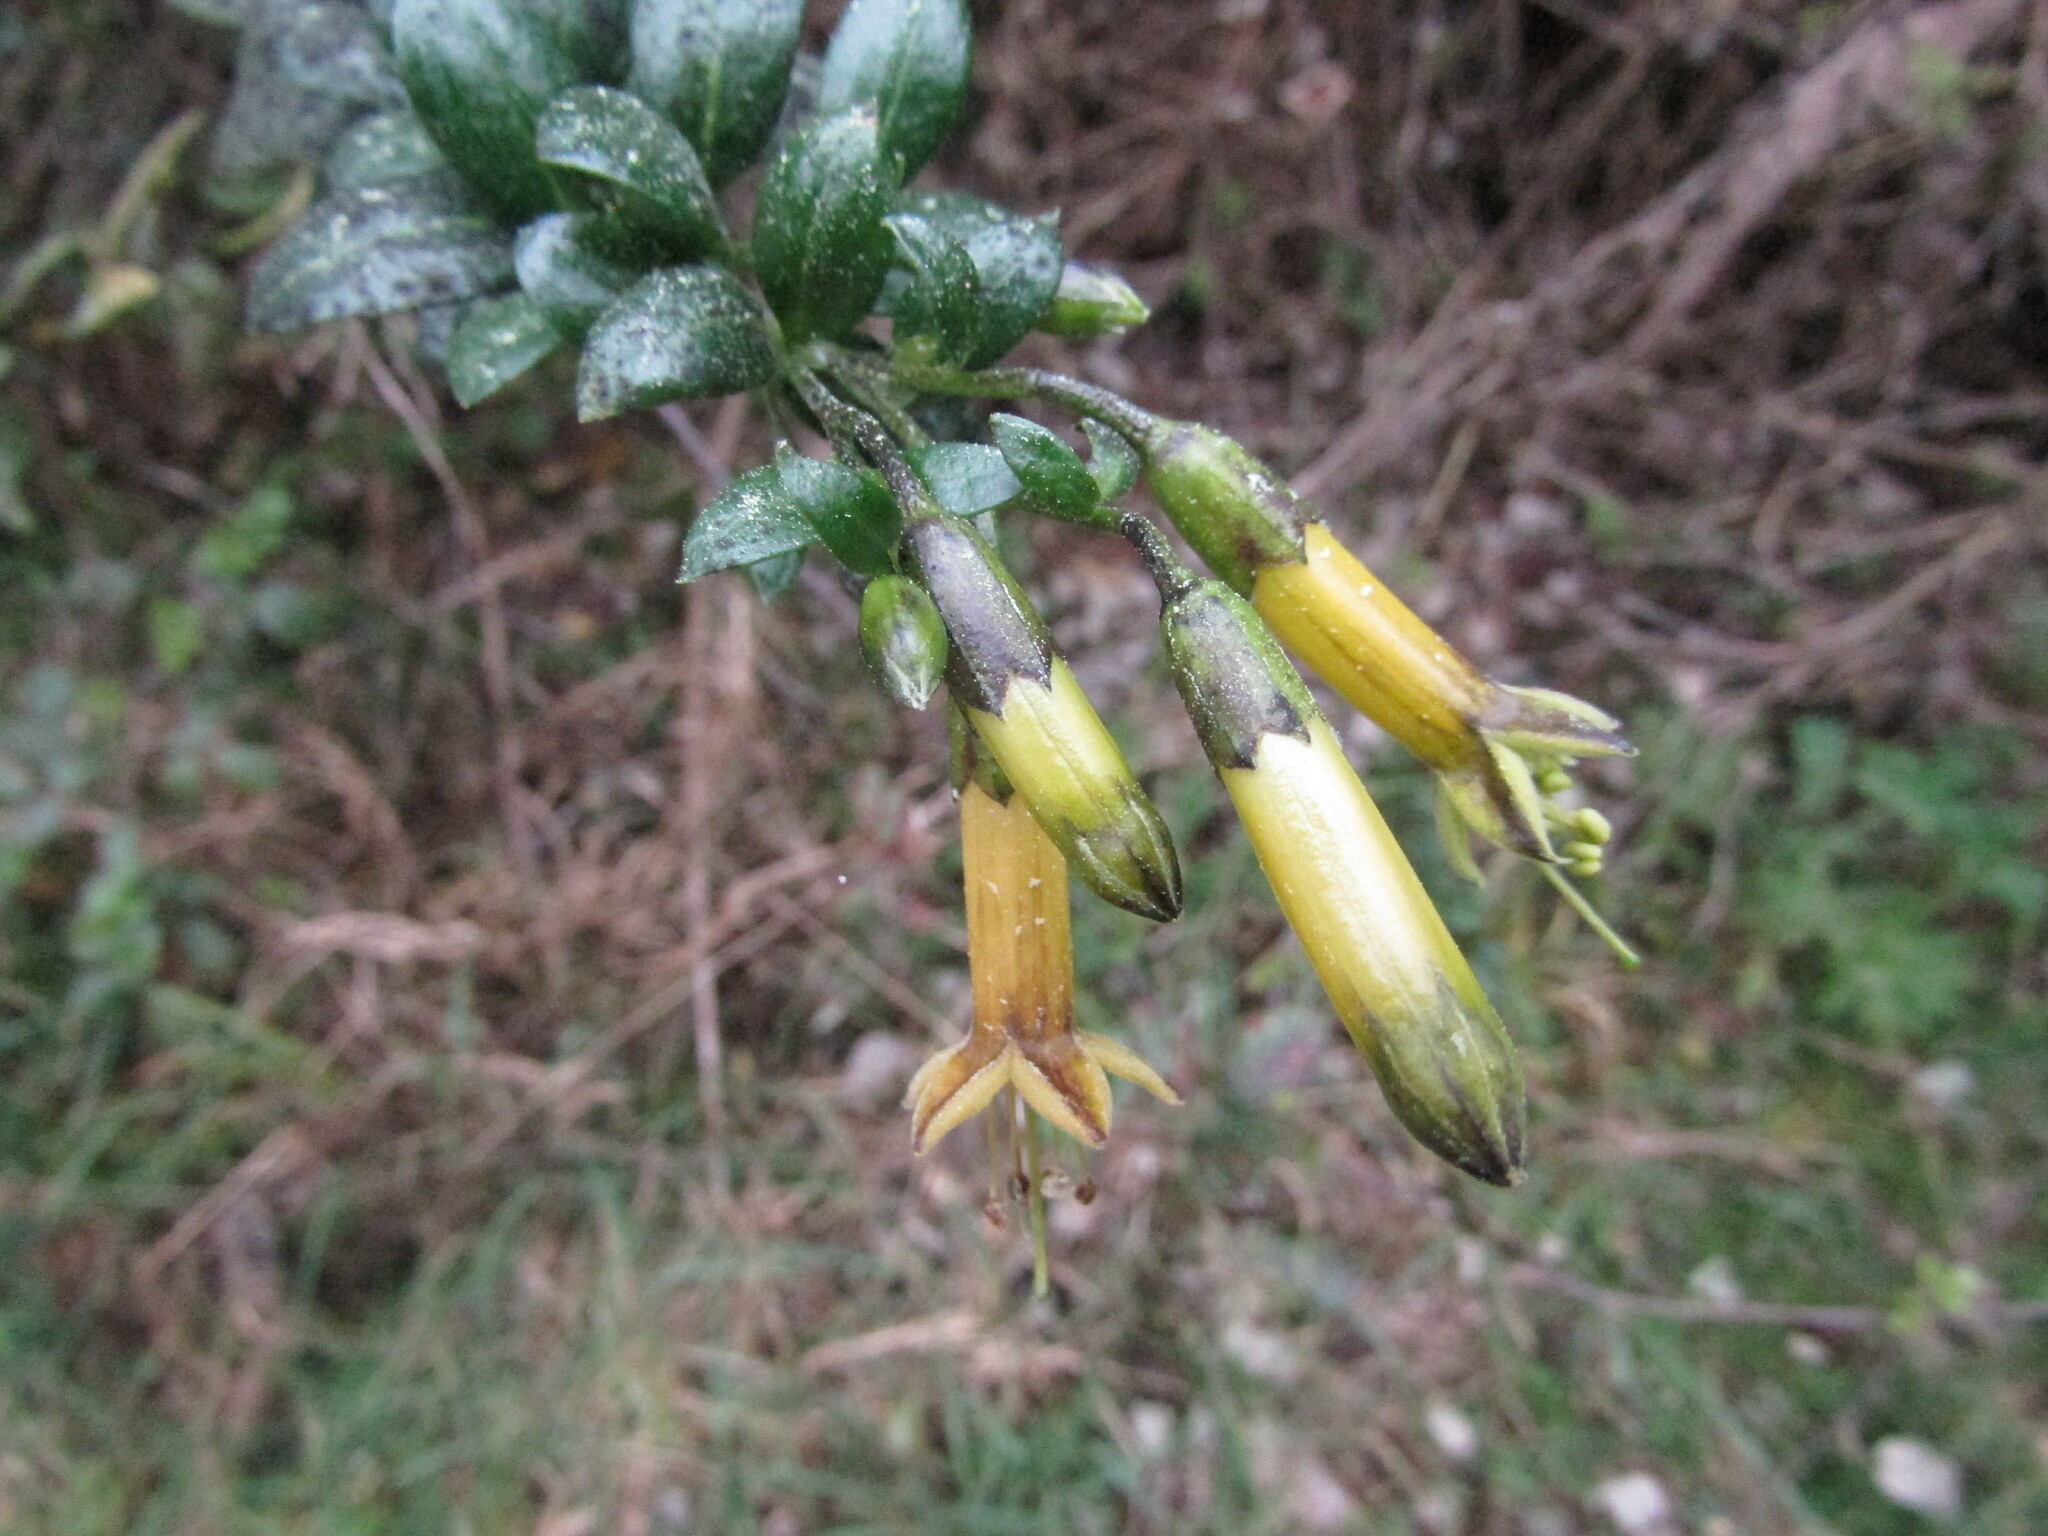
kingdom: Plantae
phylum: Tracheophyta
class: Magnoliopsida
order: Solanales
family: Solanaceae
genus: Vestia
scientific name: Vestia foetida
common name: Huevil
